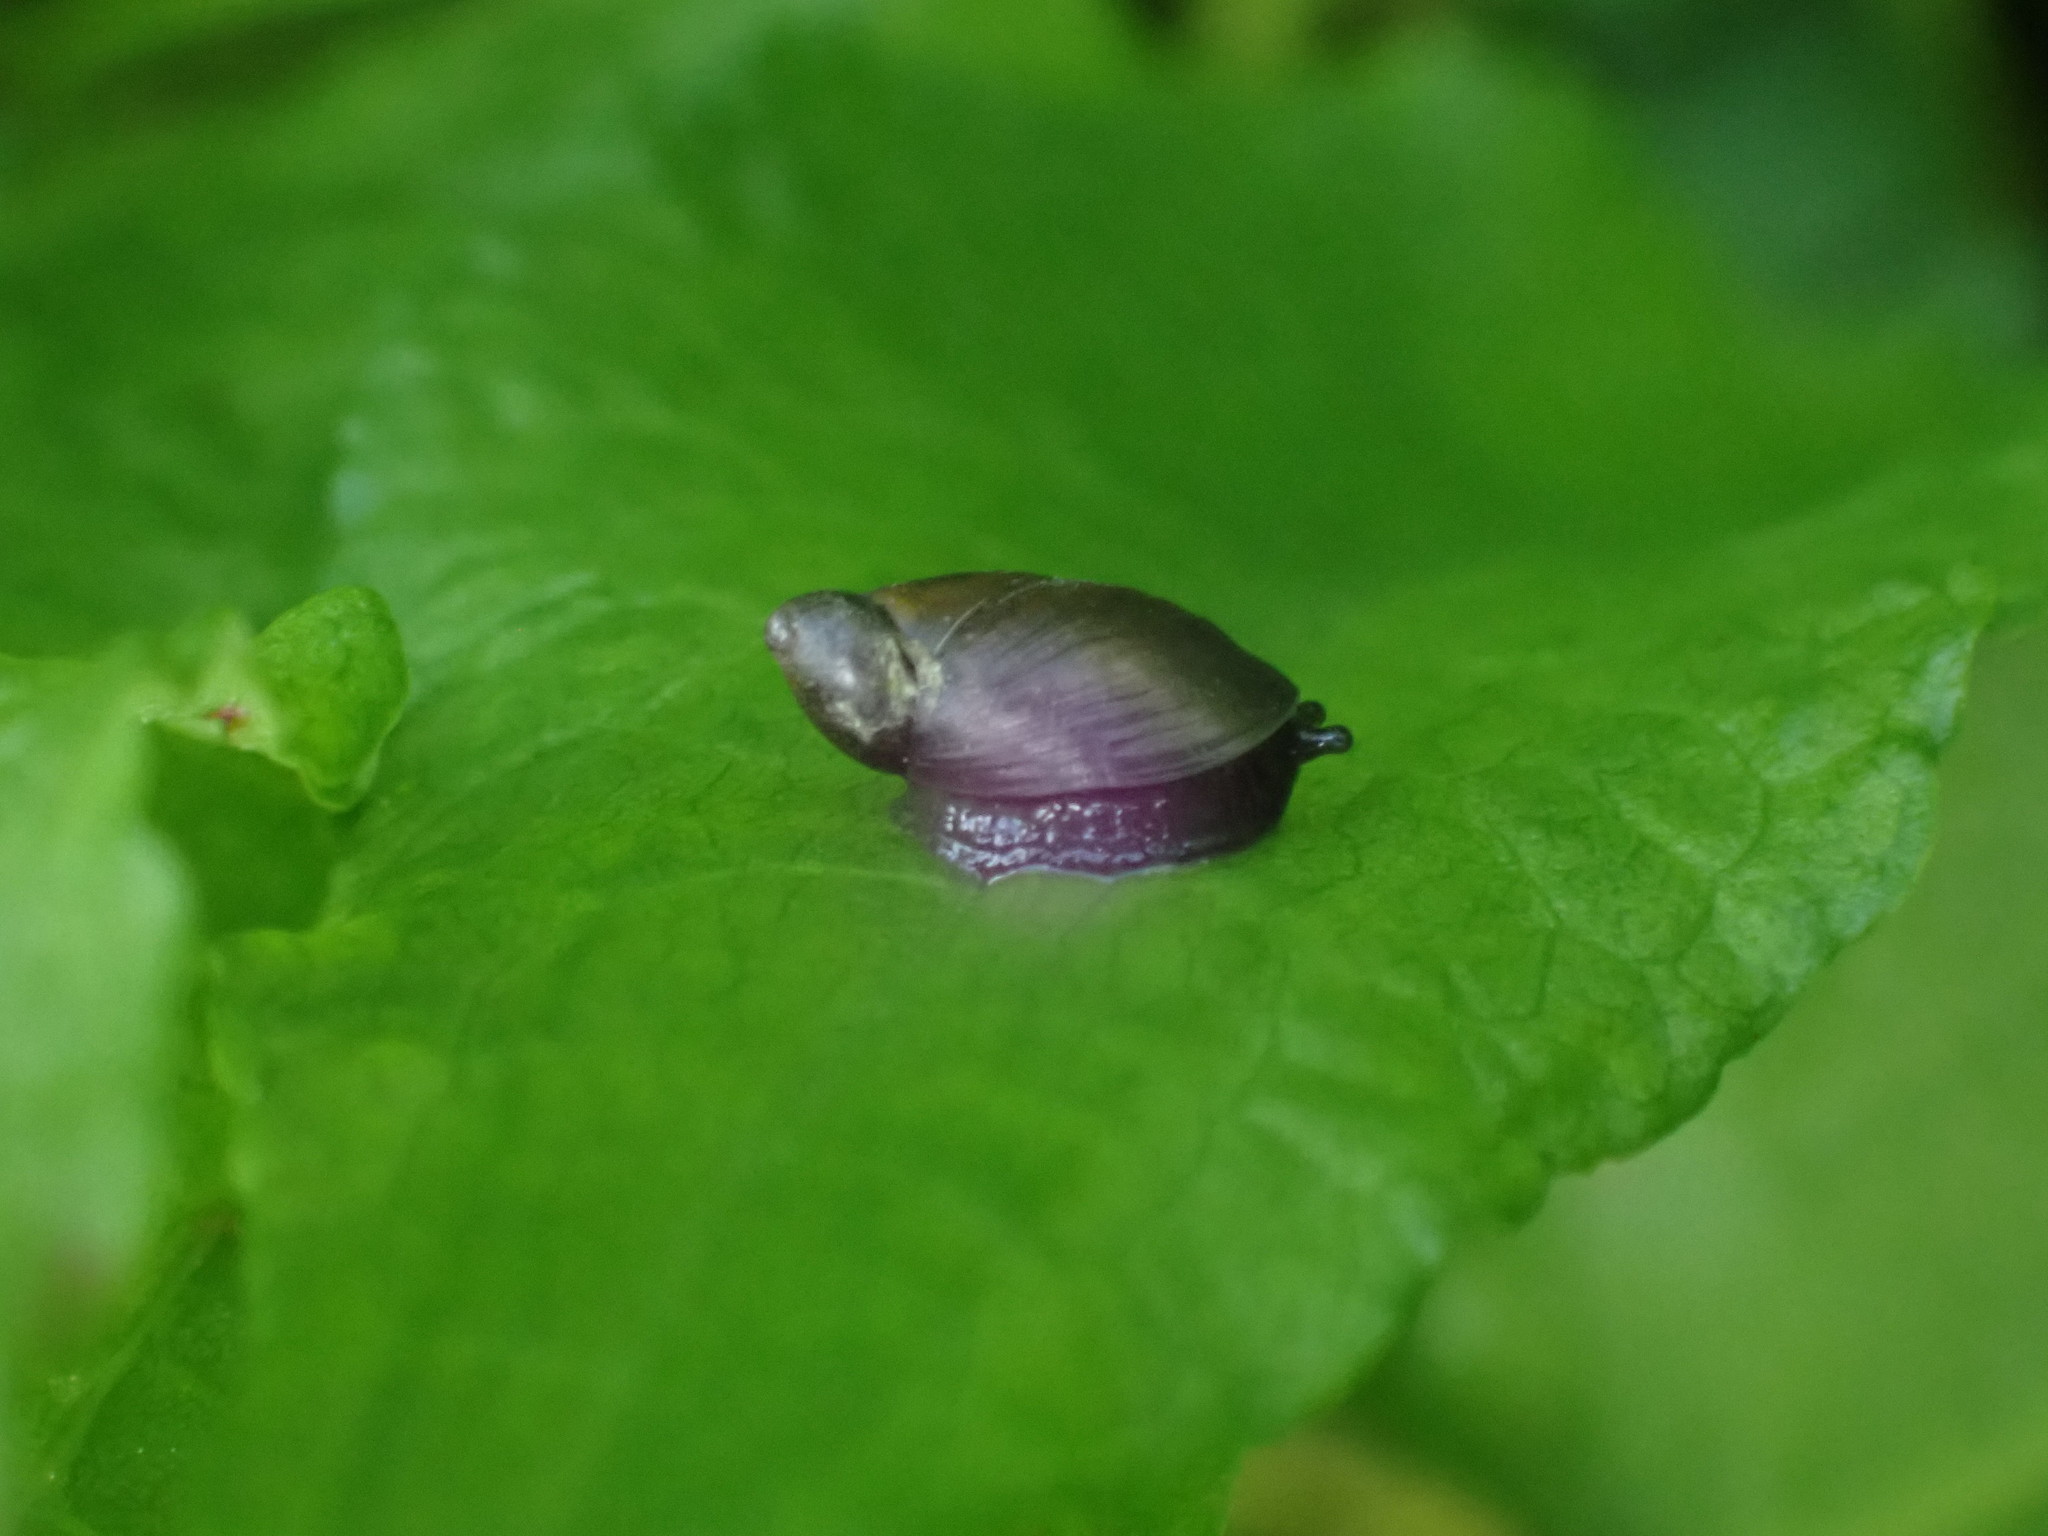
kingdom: Animalia
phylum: Mollusca
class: Gastropoda
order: Stylommatophora
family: Succineidae
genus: Oxyloma
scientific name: Oxyloma elegans
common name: Pfeiffer's amber snail
